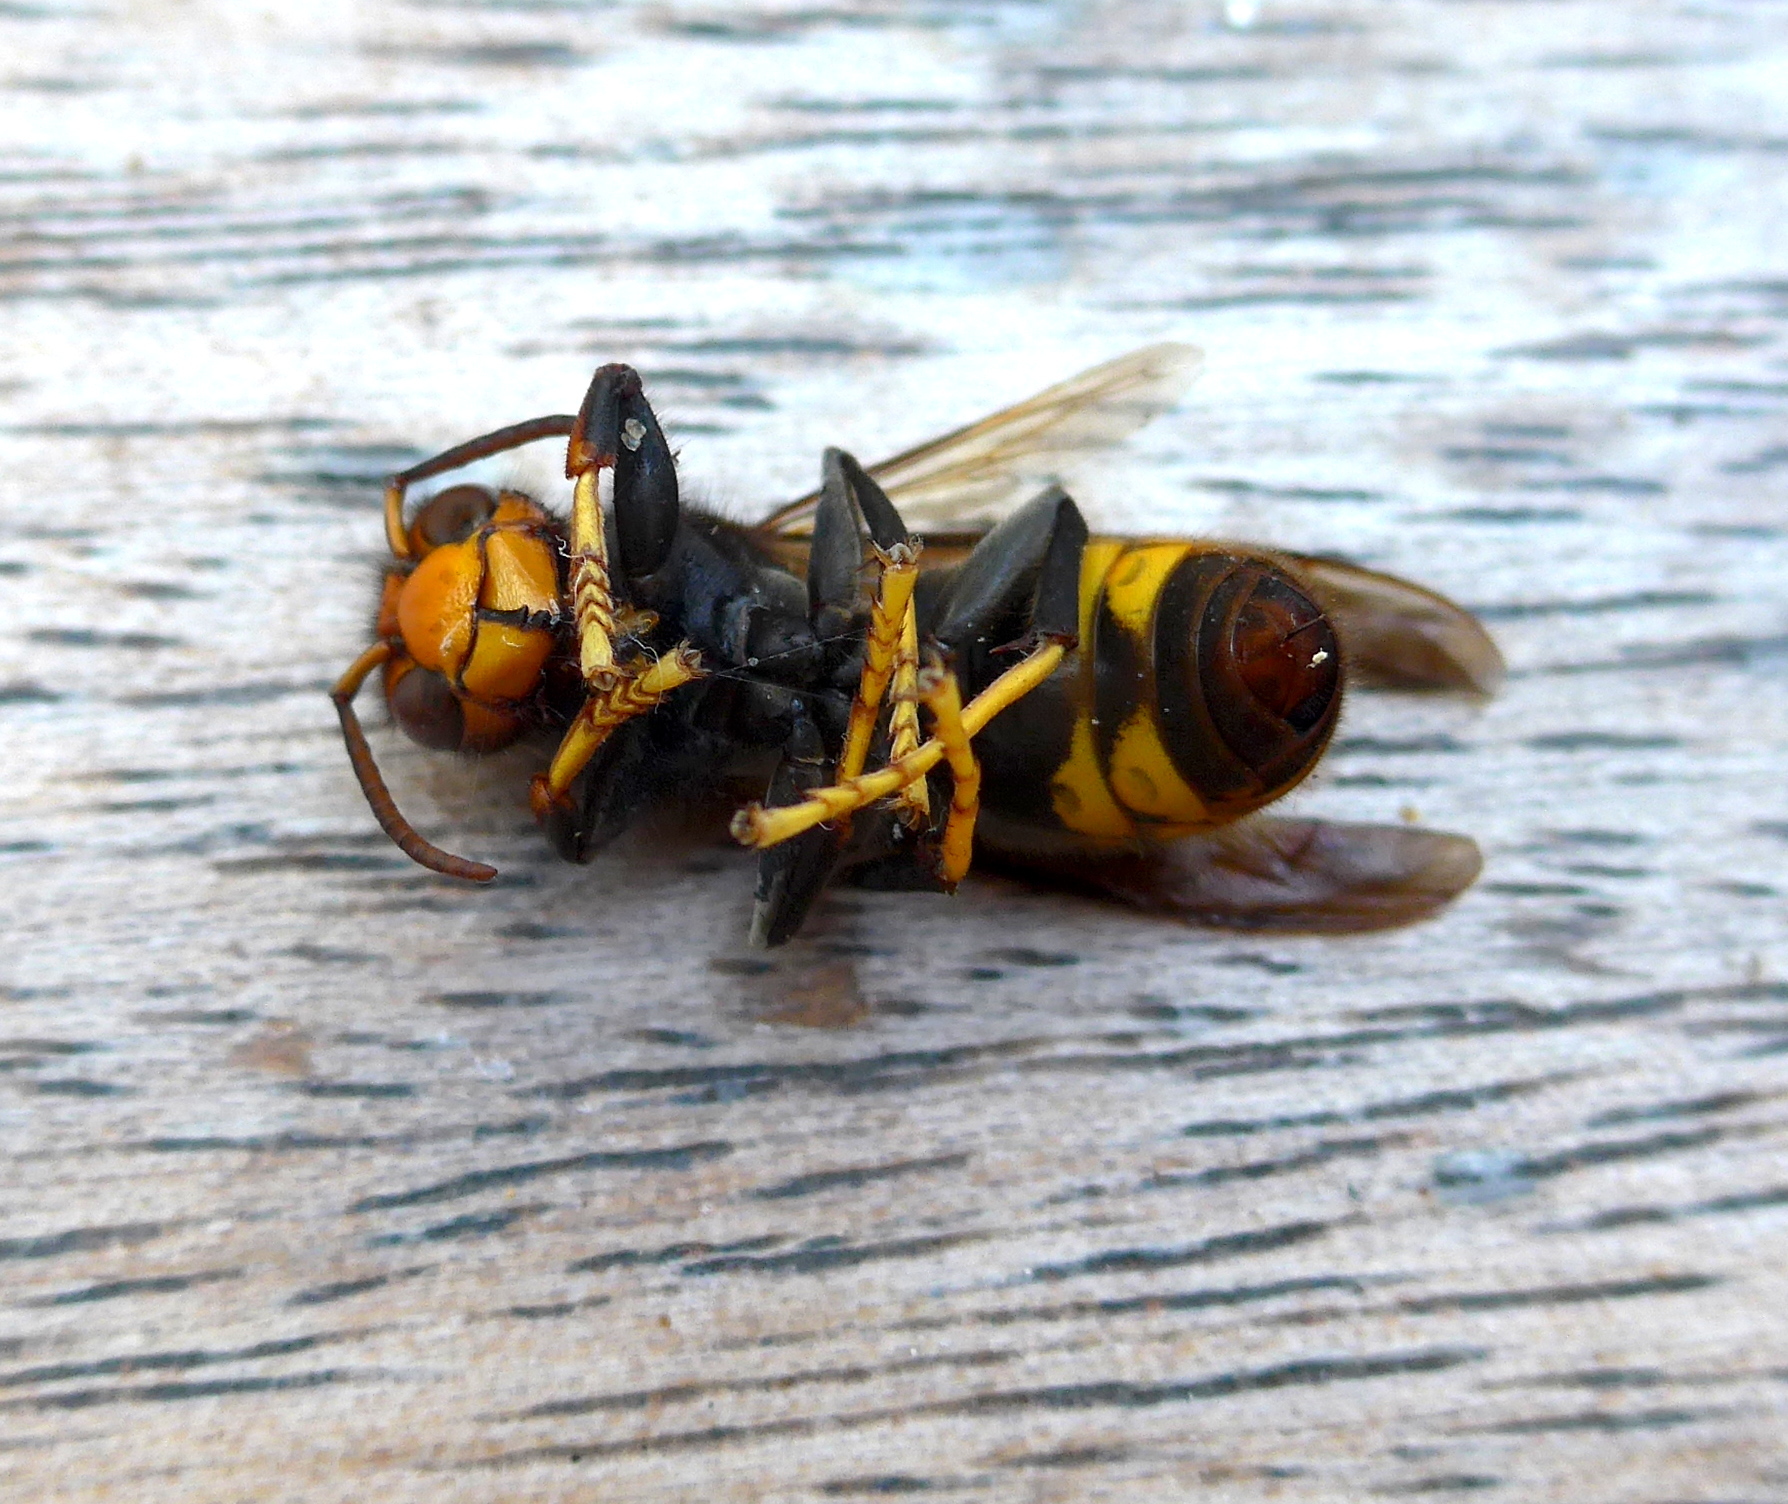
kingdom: Animalia
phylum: Arthropoda
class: Insecta
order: Hymenoptera
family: Vespidae
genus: Vespa
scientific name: Vespa velutina
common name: Asian hornet
